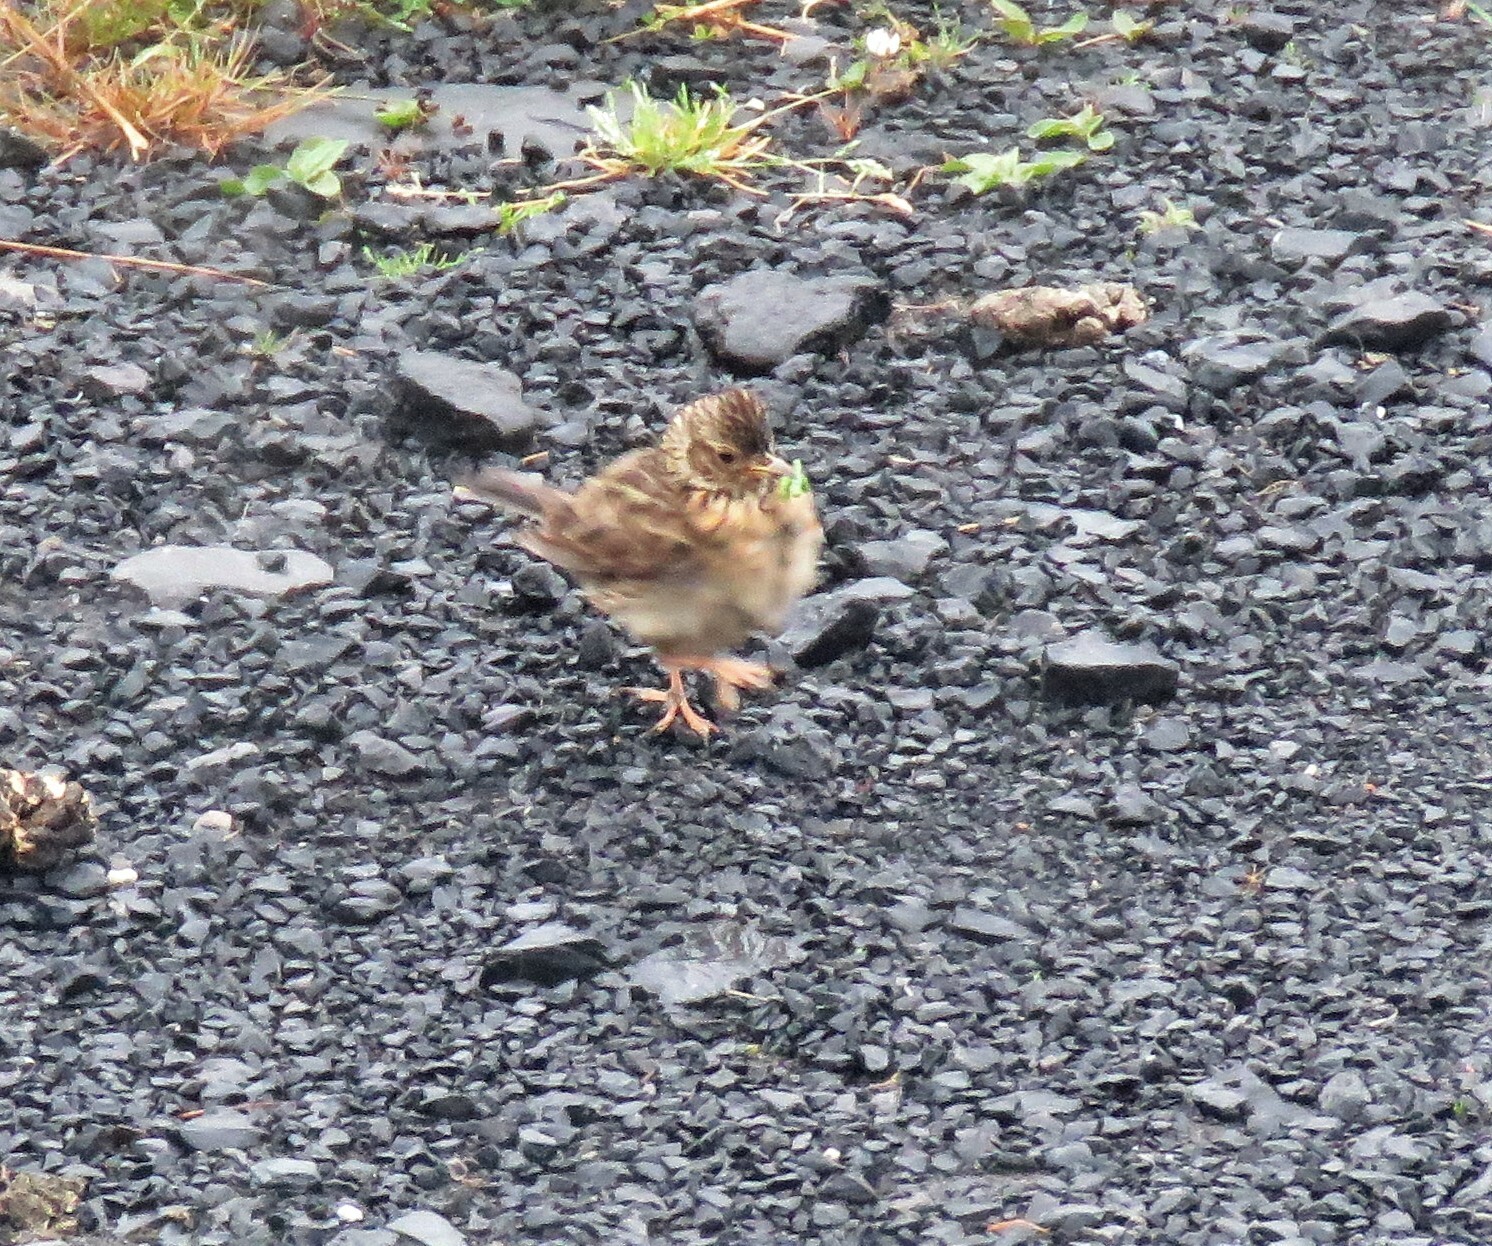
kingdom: Animalia
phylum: Chordata
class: Aves
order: Passeriformes
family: Alaudidae
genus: Alauda
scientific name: Alauda arvensis
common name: Eurasian skylark
